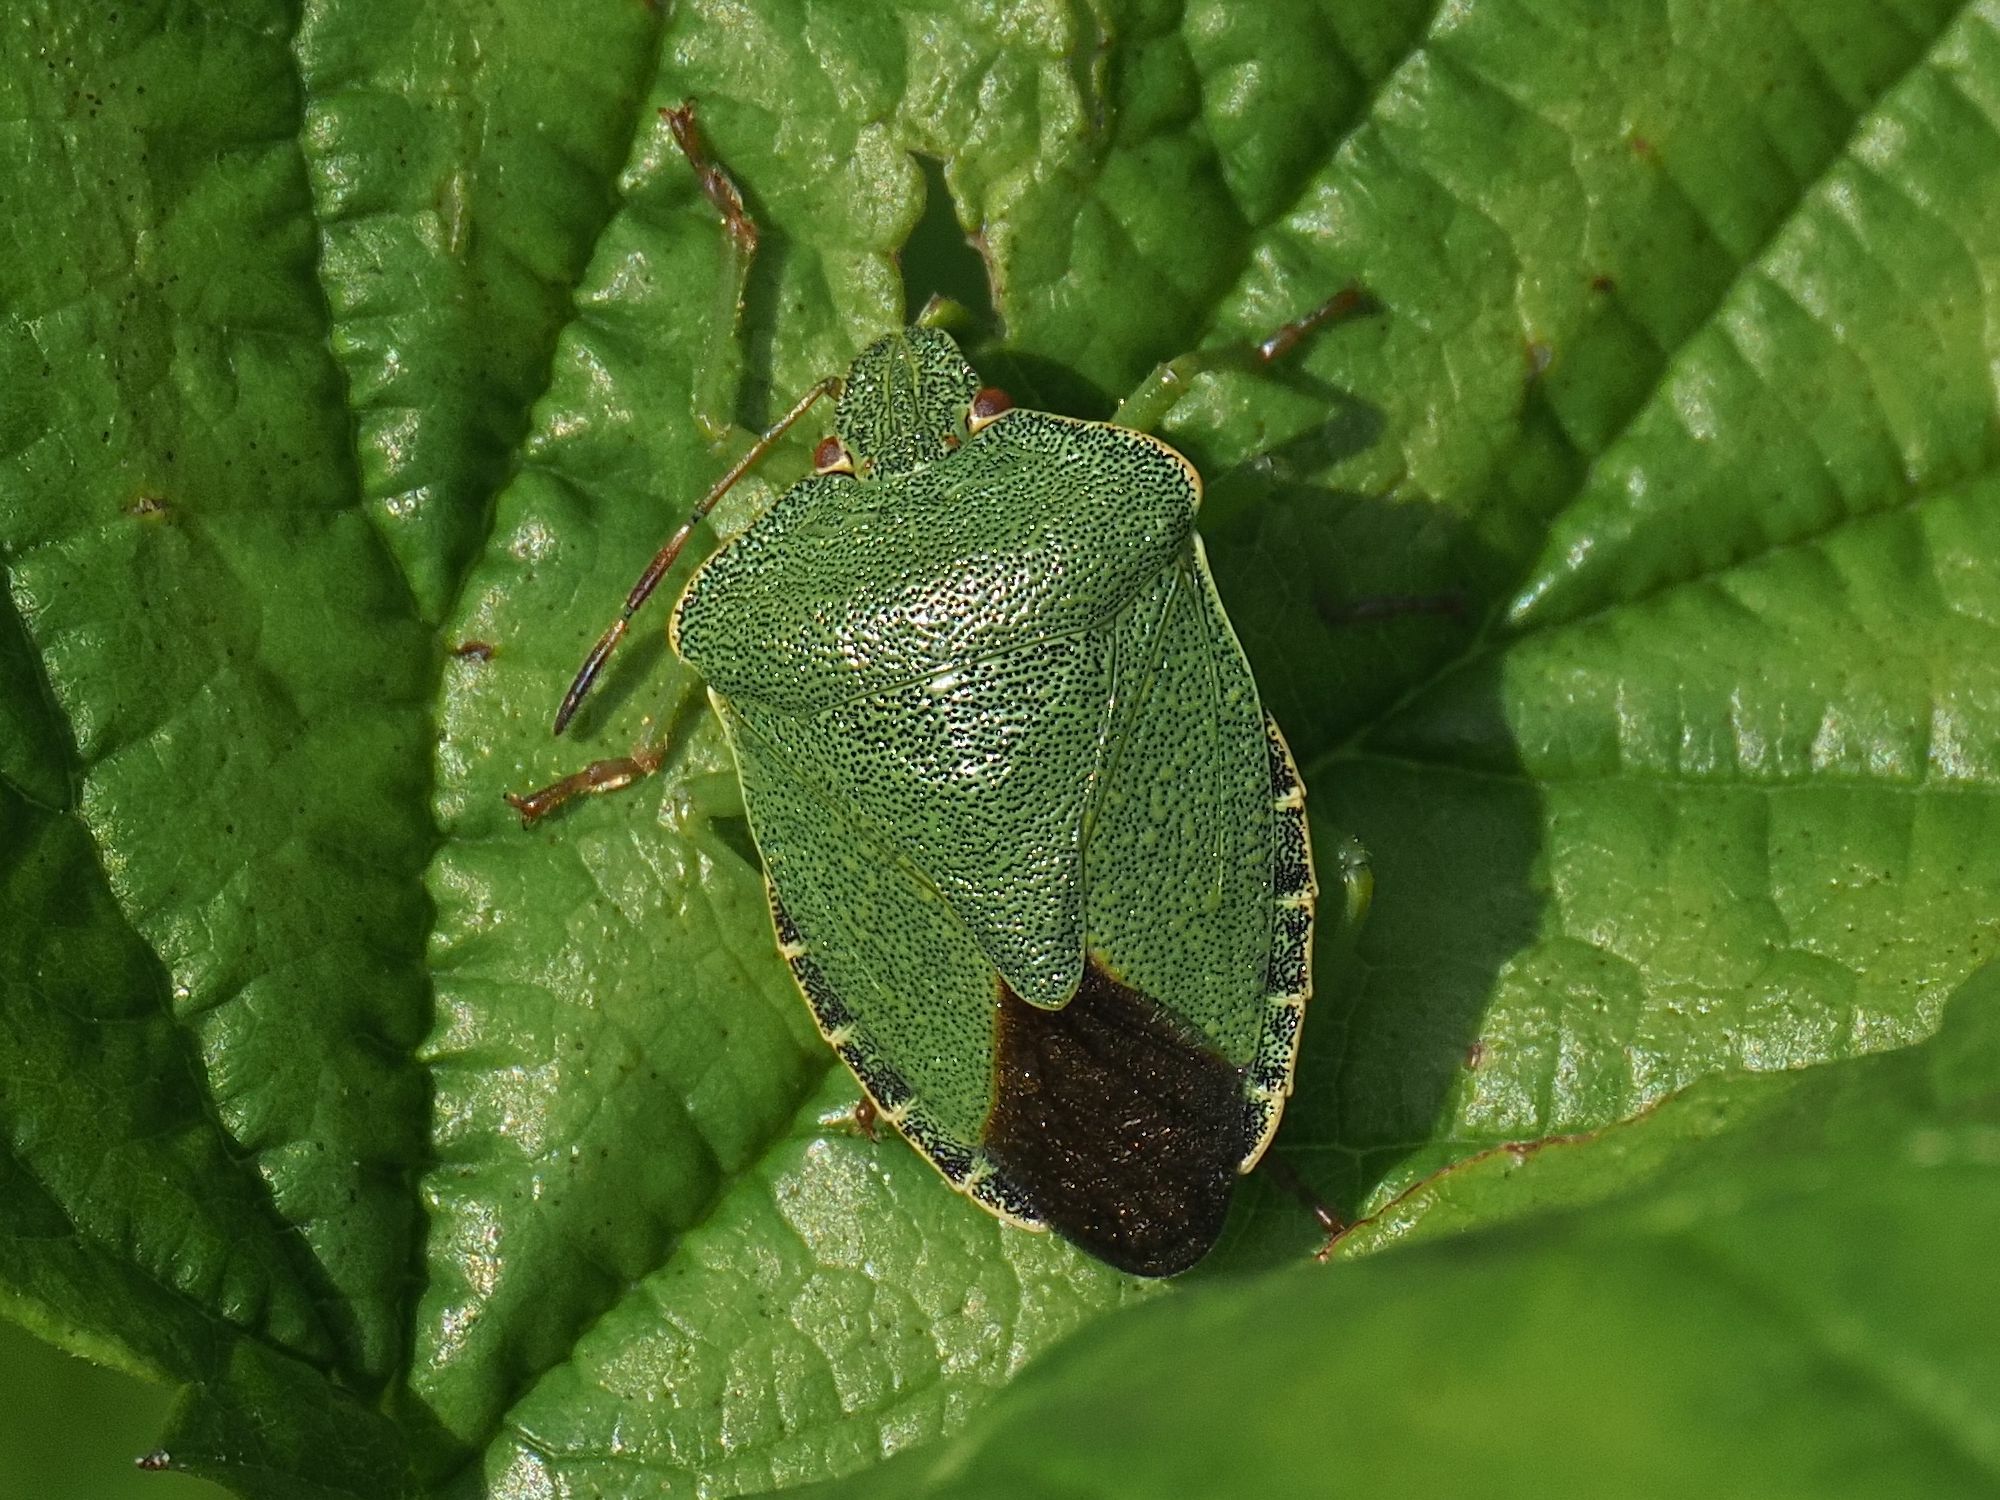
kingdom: Animalia
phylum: Arthropoda
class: Insecta
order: Hemiptera
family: Pentatomidae
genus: Palomena
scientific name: Palomena prasina
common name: Green shieldbug
